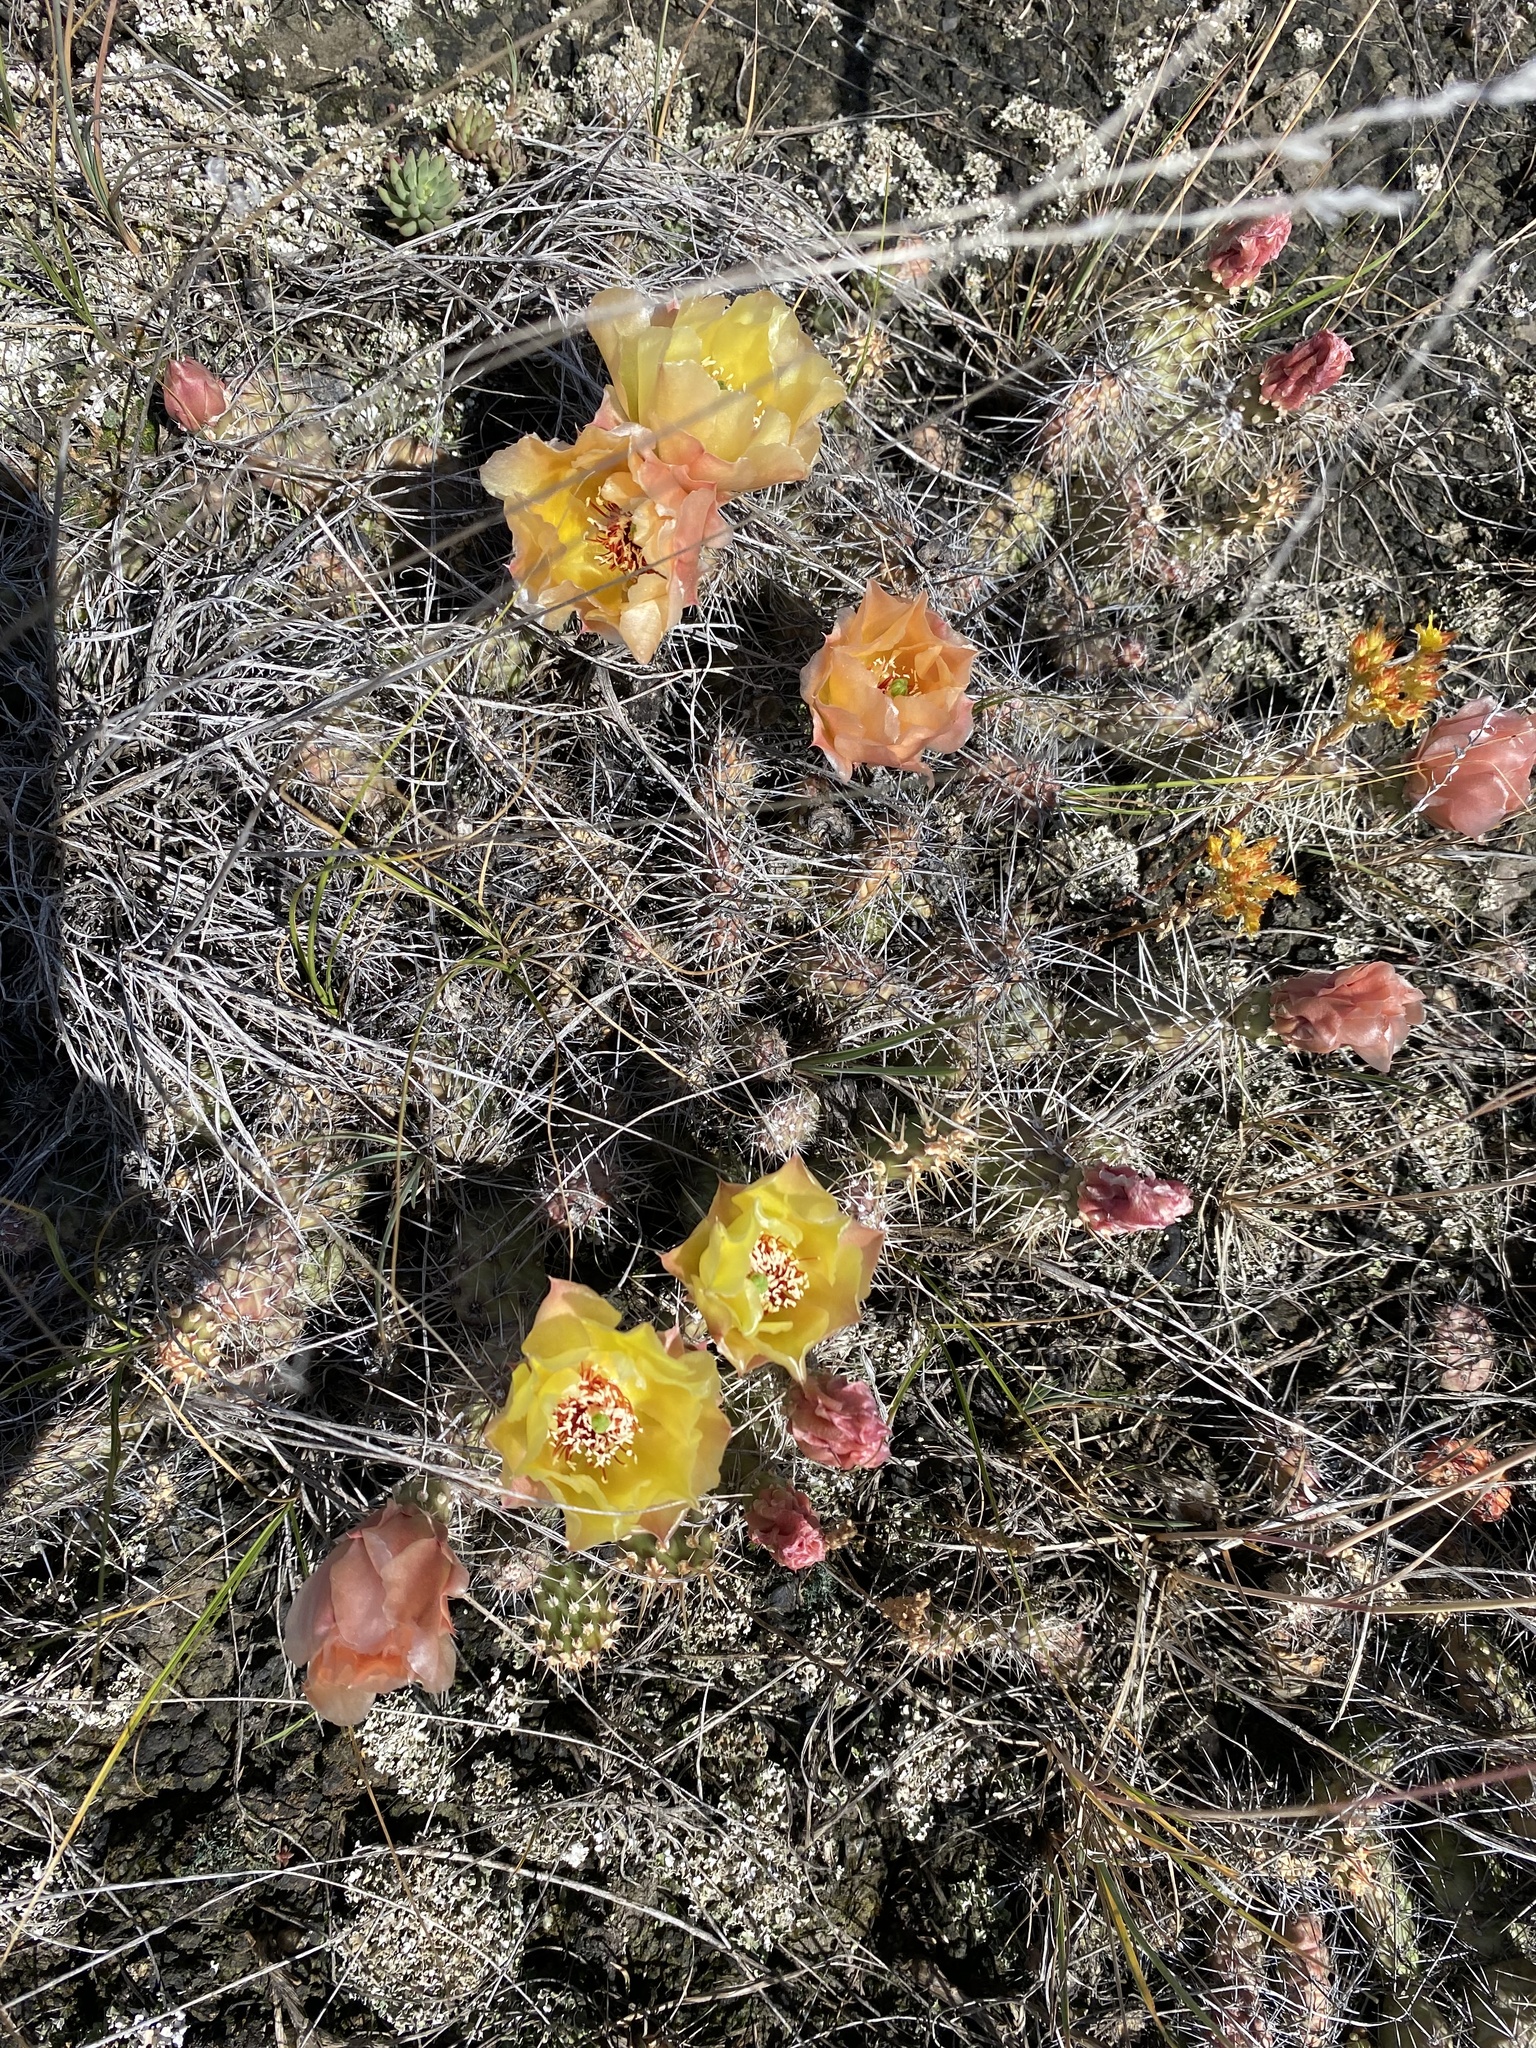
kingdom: Plantae
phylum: Tracheophyta
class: Magnoliopsida
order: Caryophyllales
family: Cactaceae
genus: Opuntia
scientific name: Opuntia fragilis
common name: Brittle cactus
